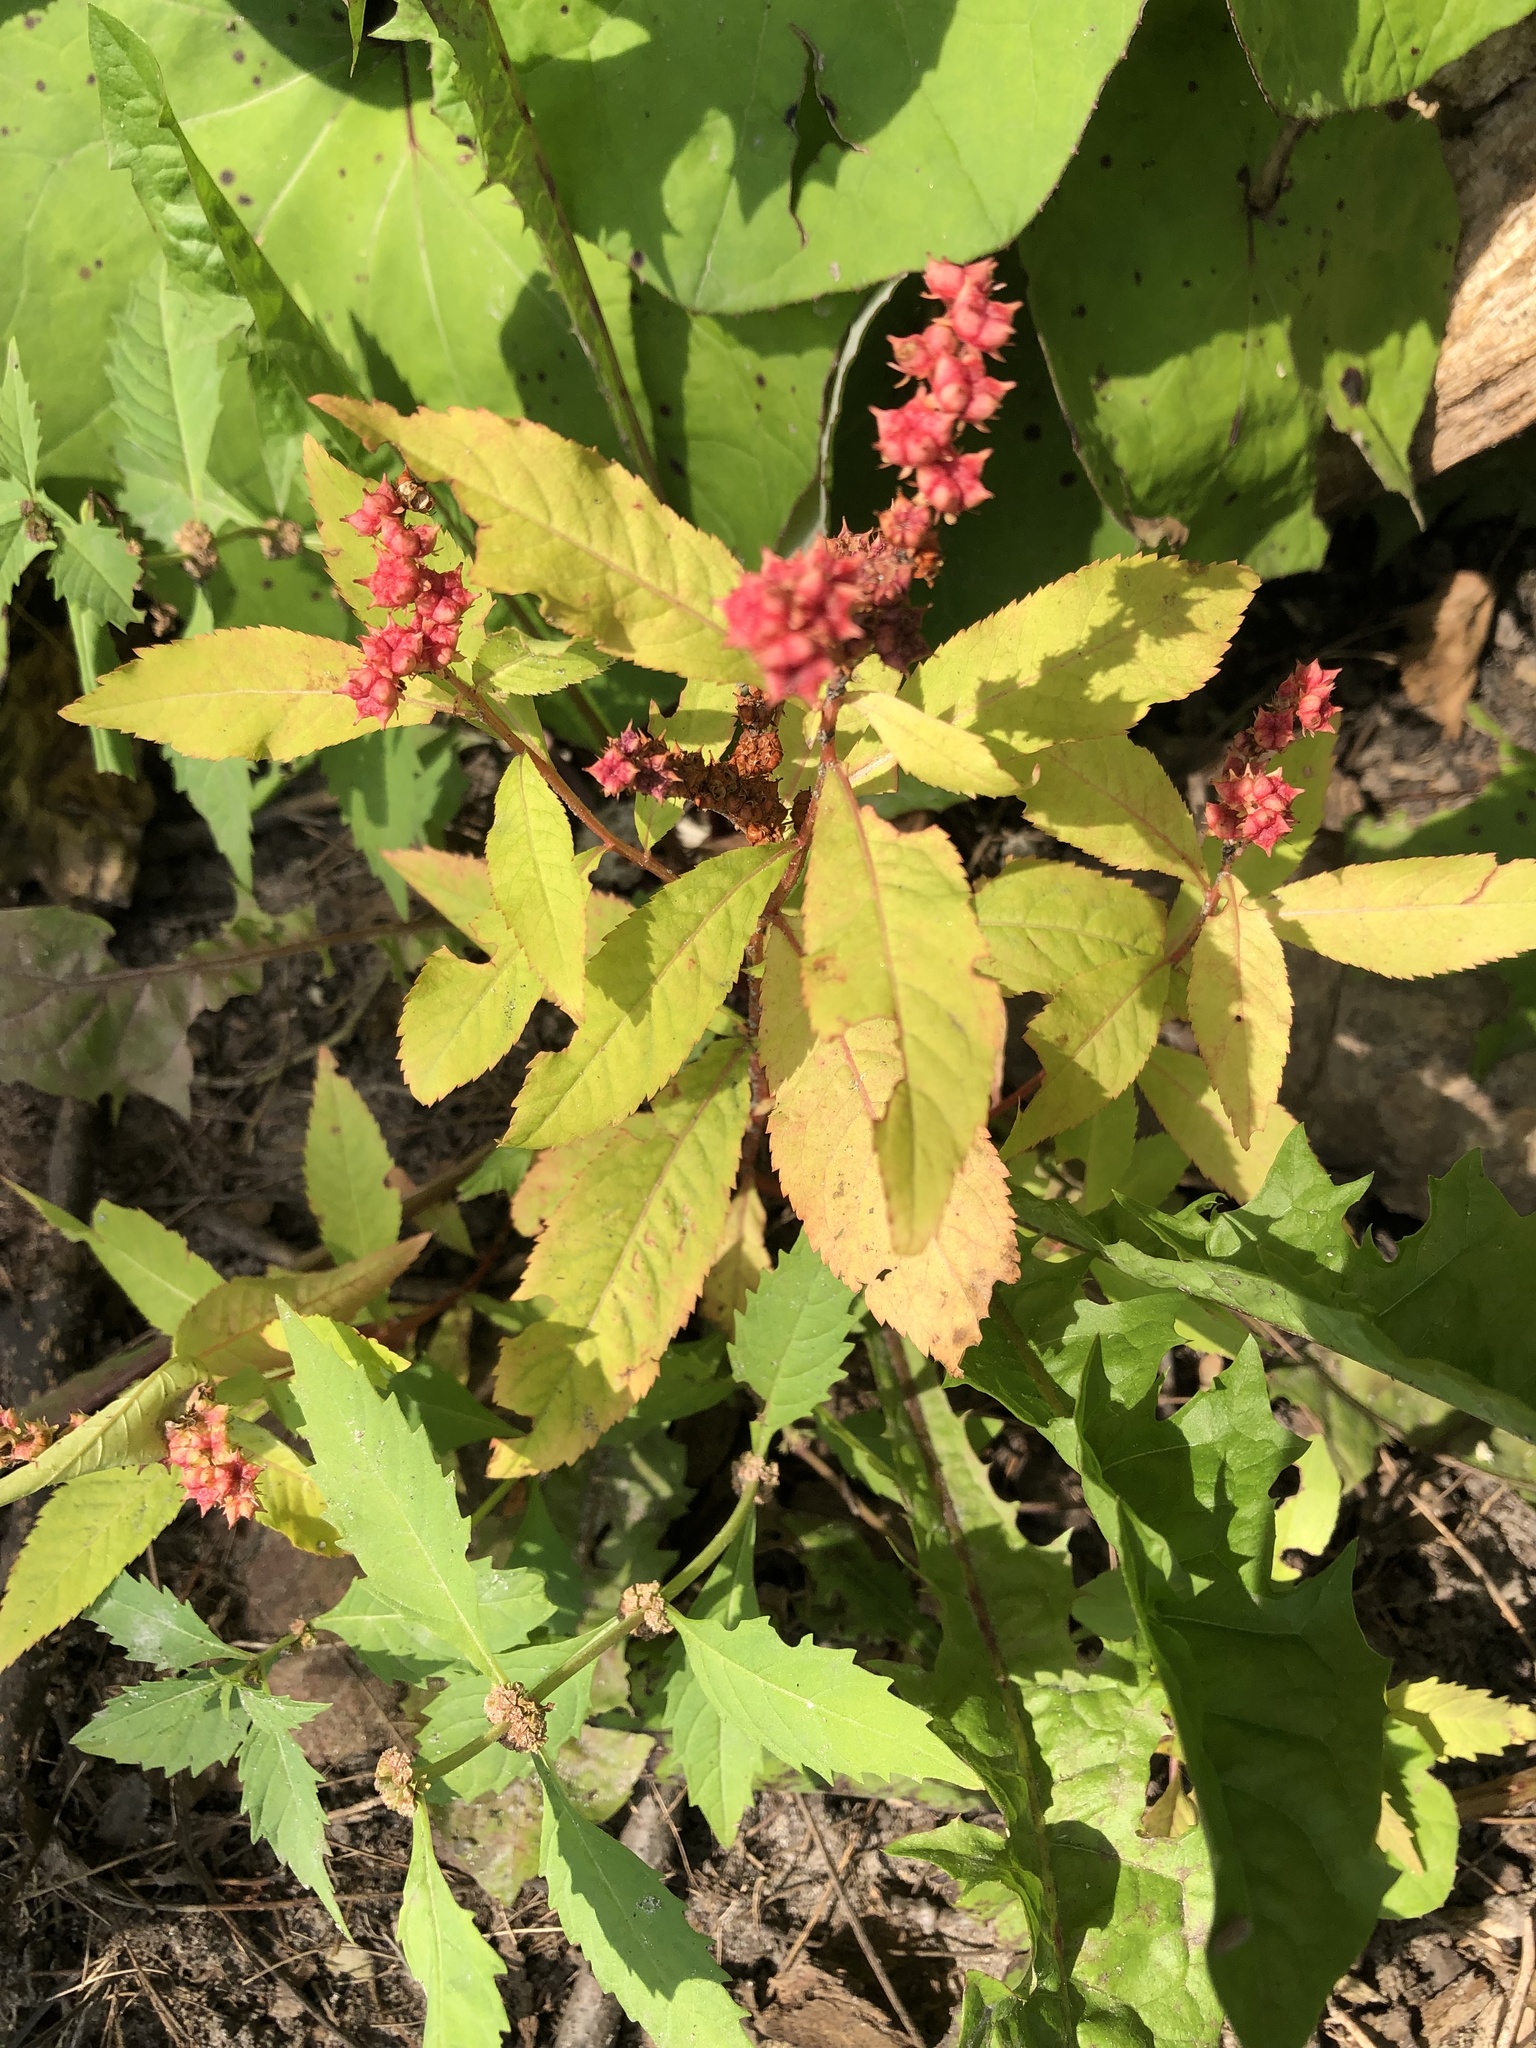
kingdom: Plantae
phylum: Tracheophyta
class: Magnoliopsida
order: Saxifragales
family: Penthoraceae
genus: Penthorum
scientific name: Penthorum sedoides
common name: Ditch stonecrop
